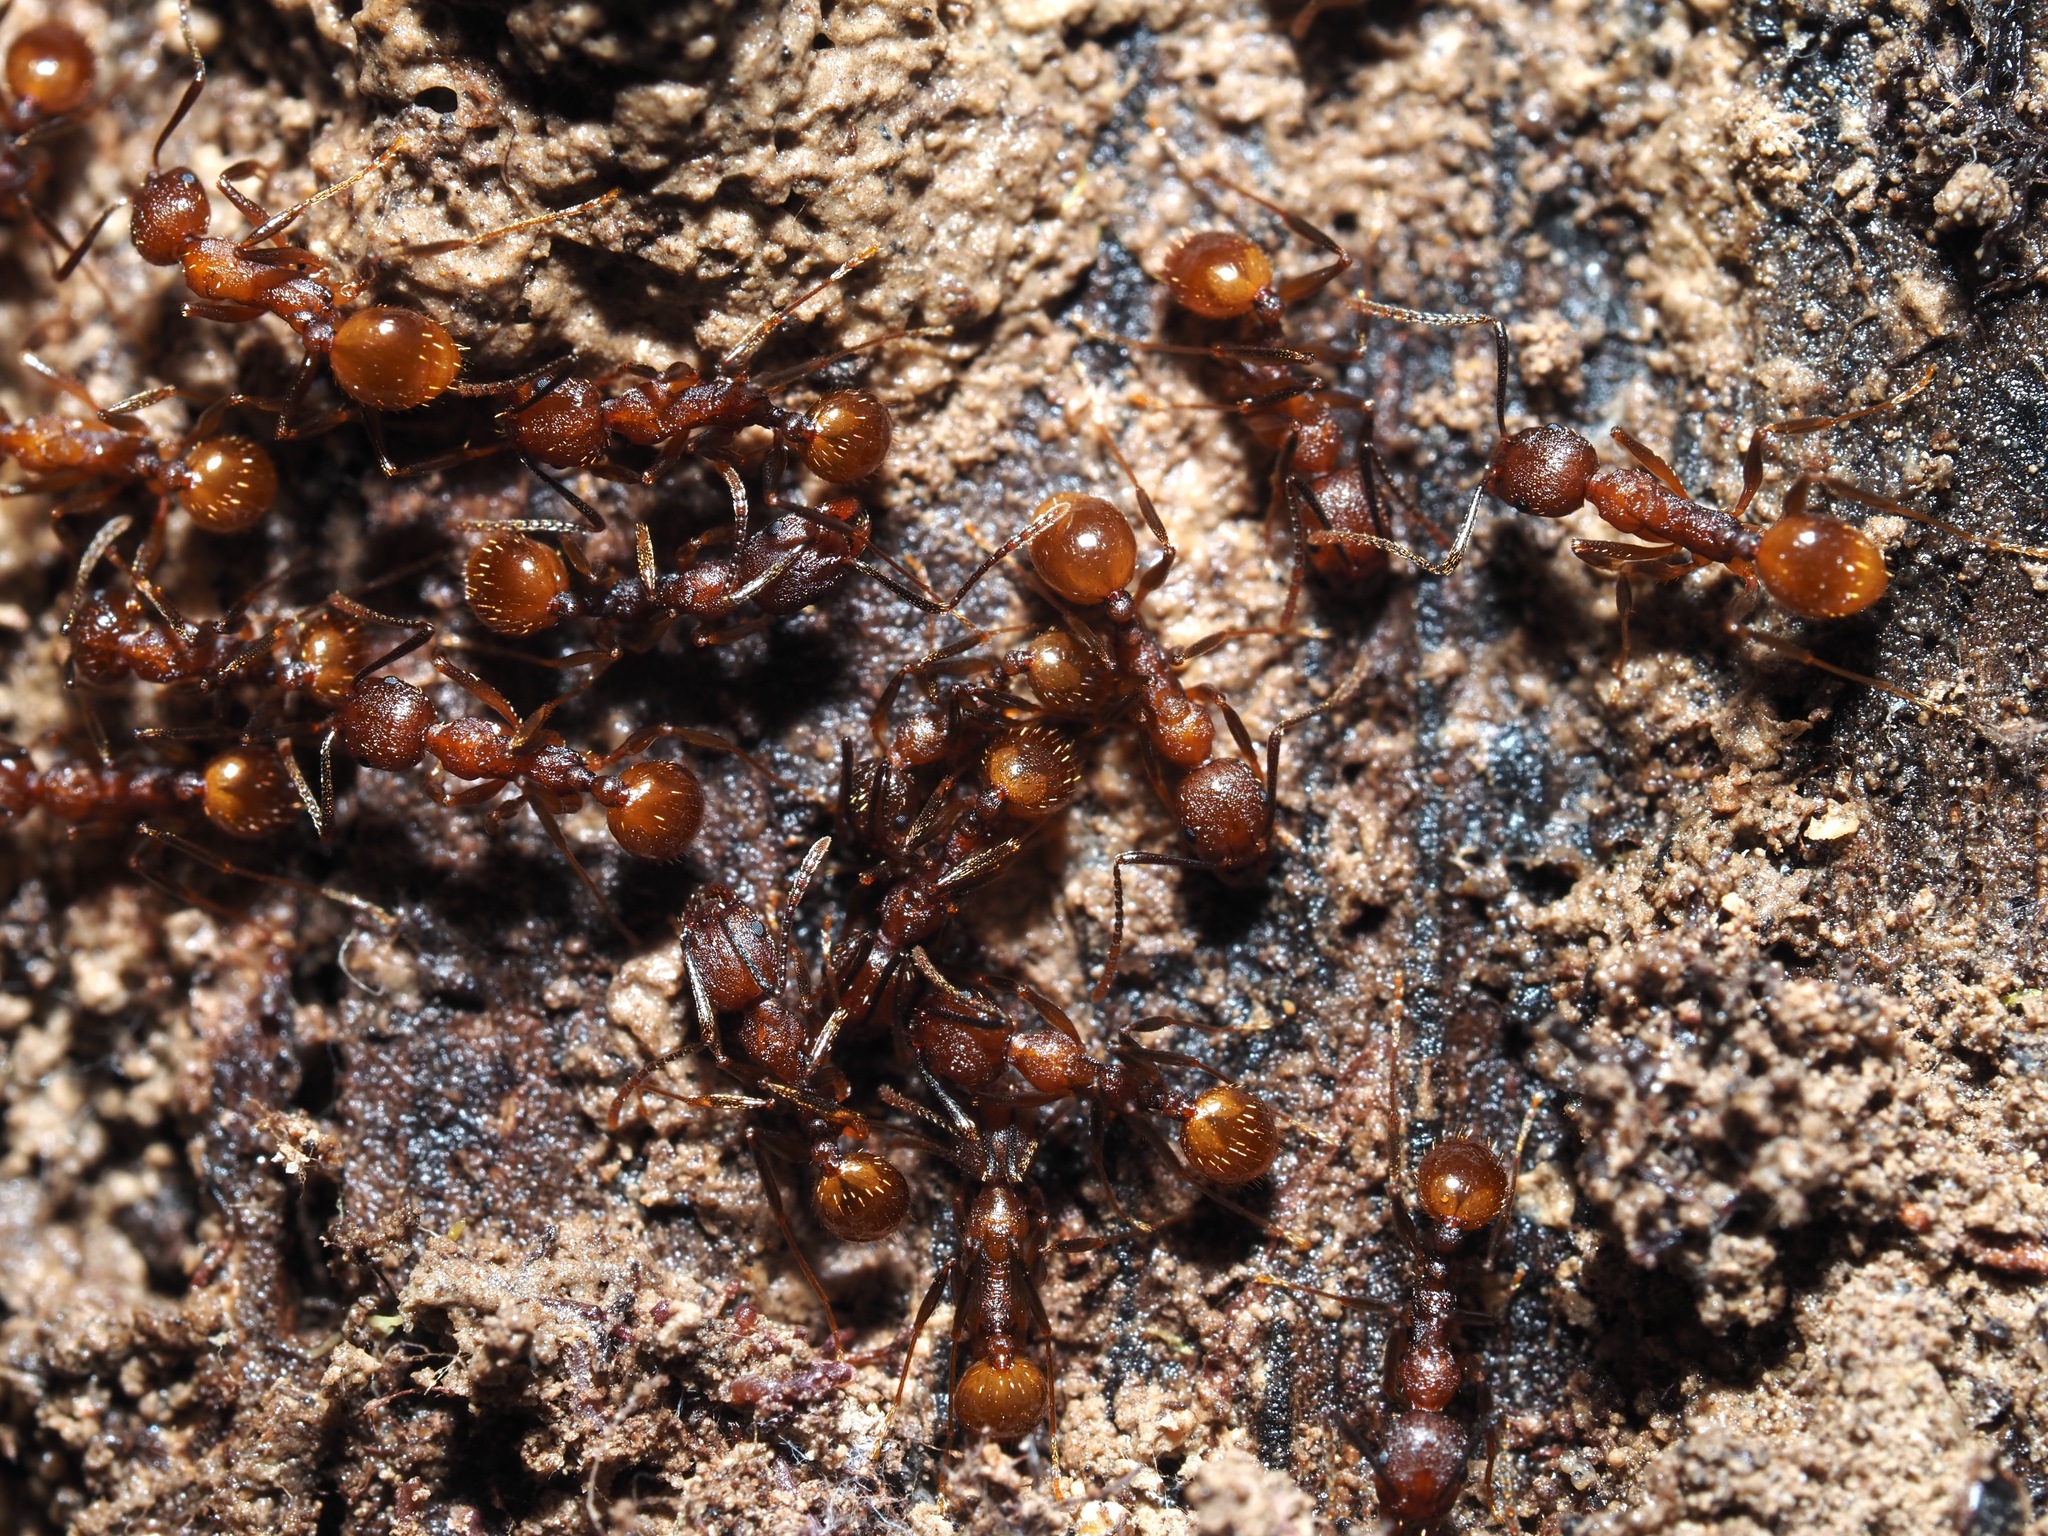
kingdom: Animalia
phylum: Arthropoda
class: Insecta
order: Hymenoptera
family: Formicidae
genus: Aphaenogaster
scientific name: Aphaenogaster fulva
